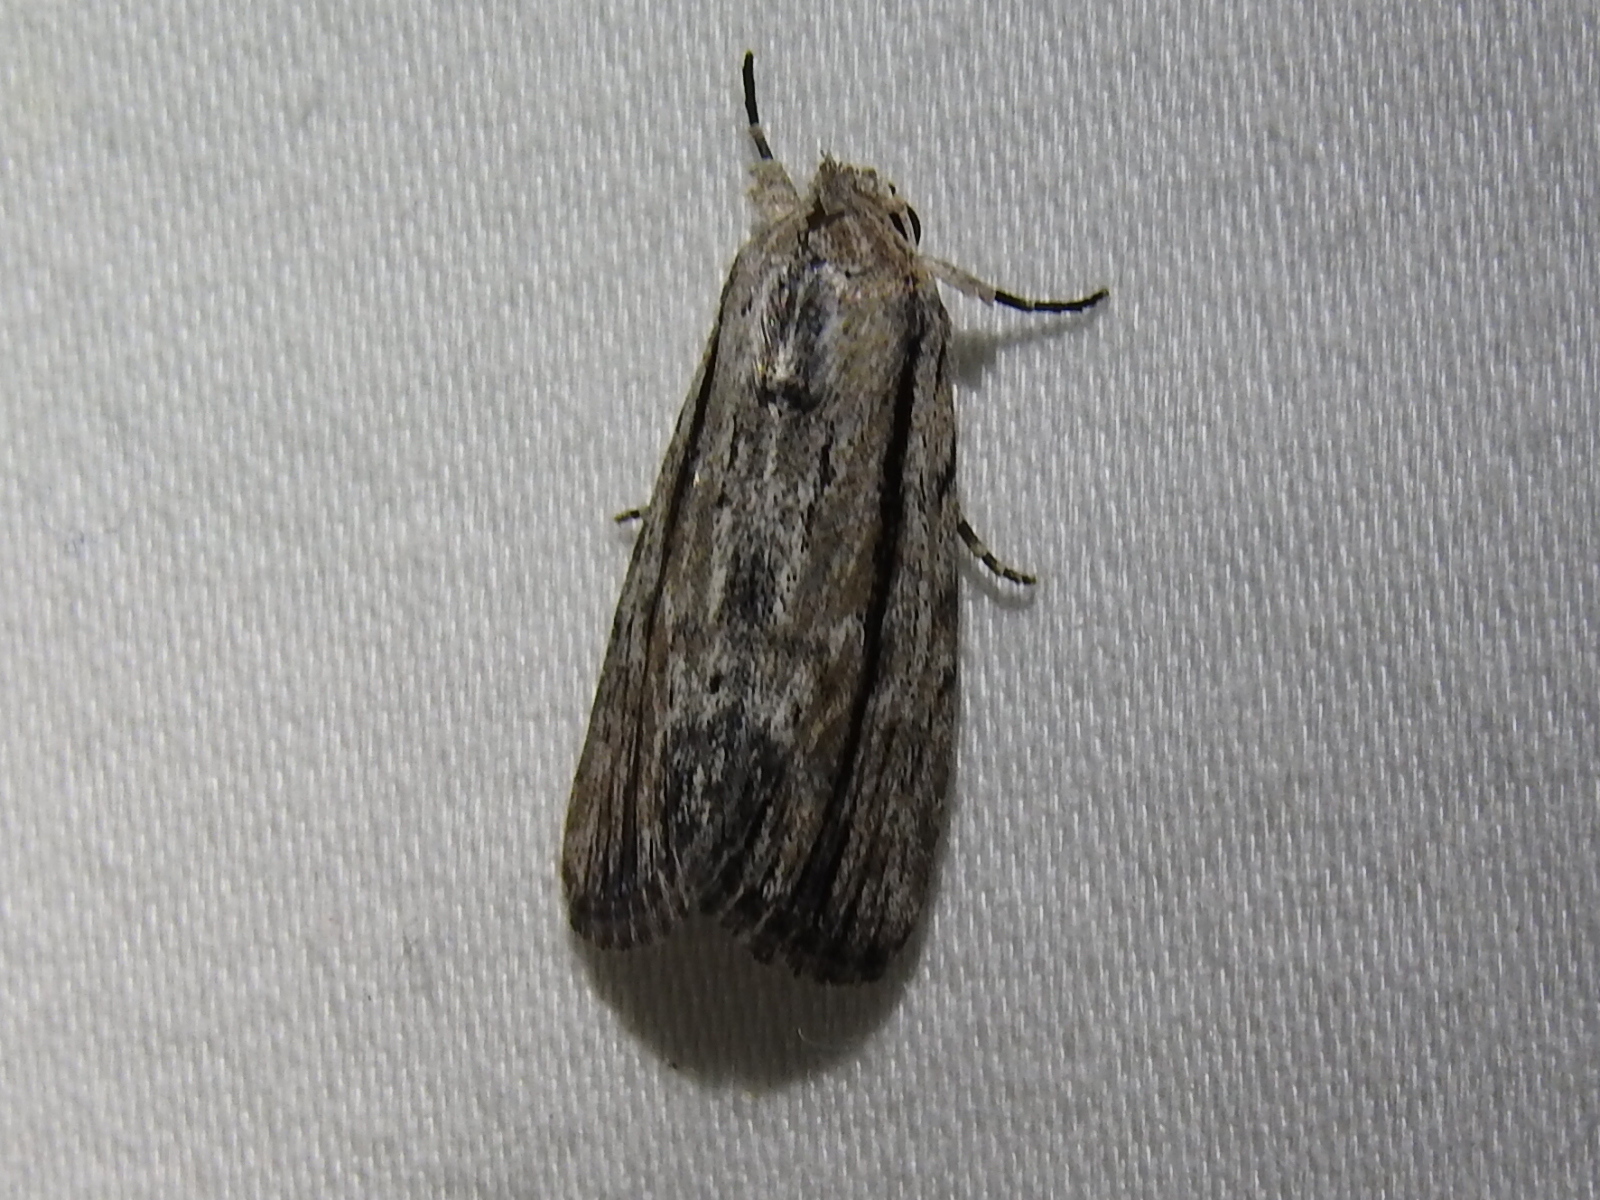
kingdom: Animalia
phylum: Arthropoda
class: Insecta
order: Lepidoptera
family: Noctuidae
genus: Catabenoides
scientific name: Catabenoides terminellus
